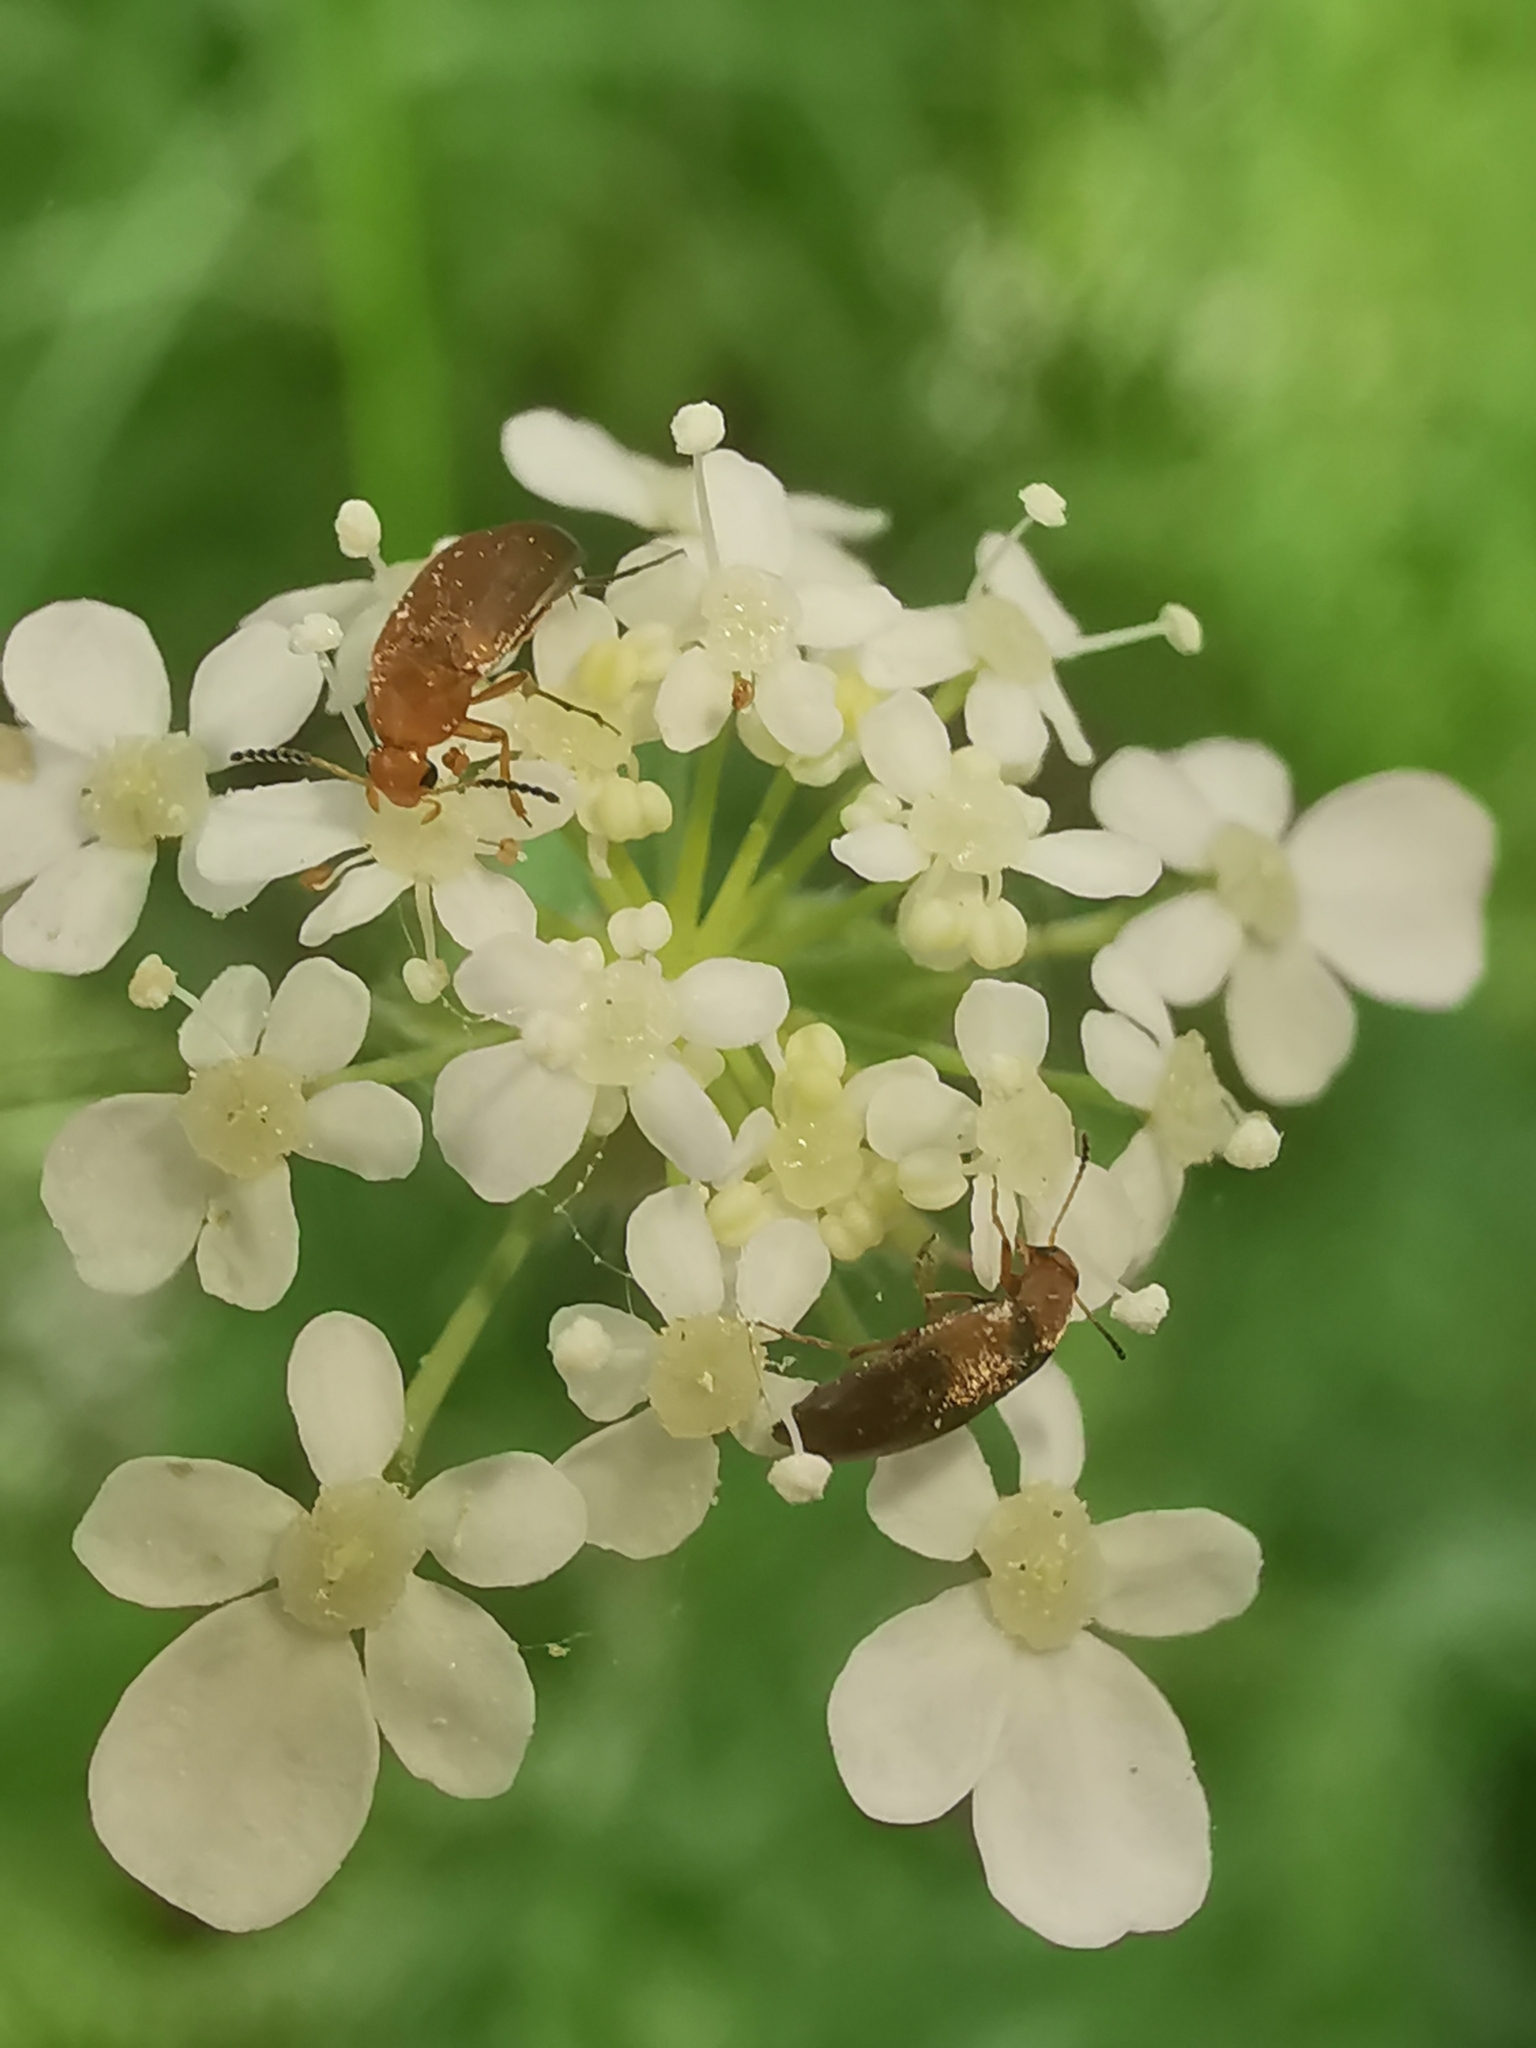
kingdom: Animalia
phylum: Arthropoda
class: Insecta
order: Coleoptera
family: Scraptiidae
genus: Anaspis
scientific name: Anaspis maculata
